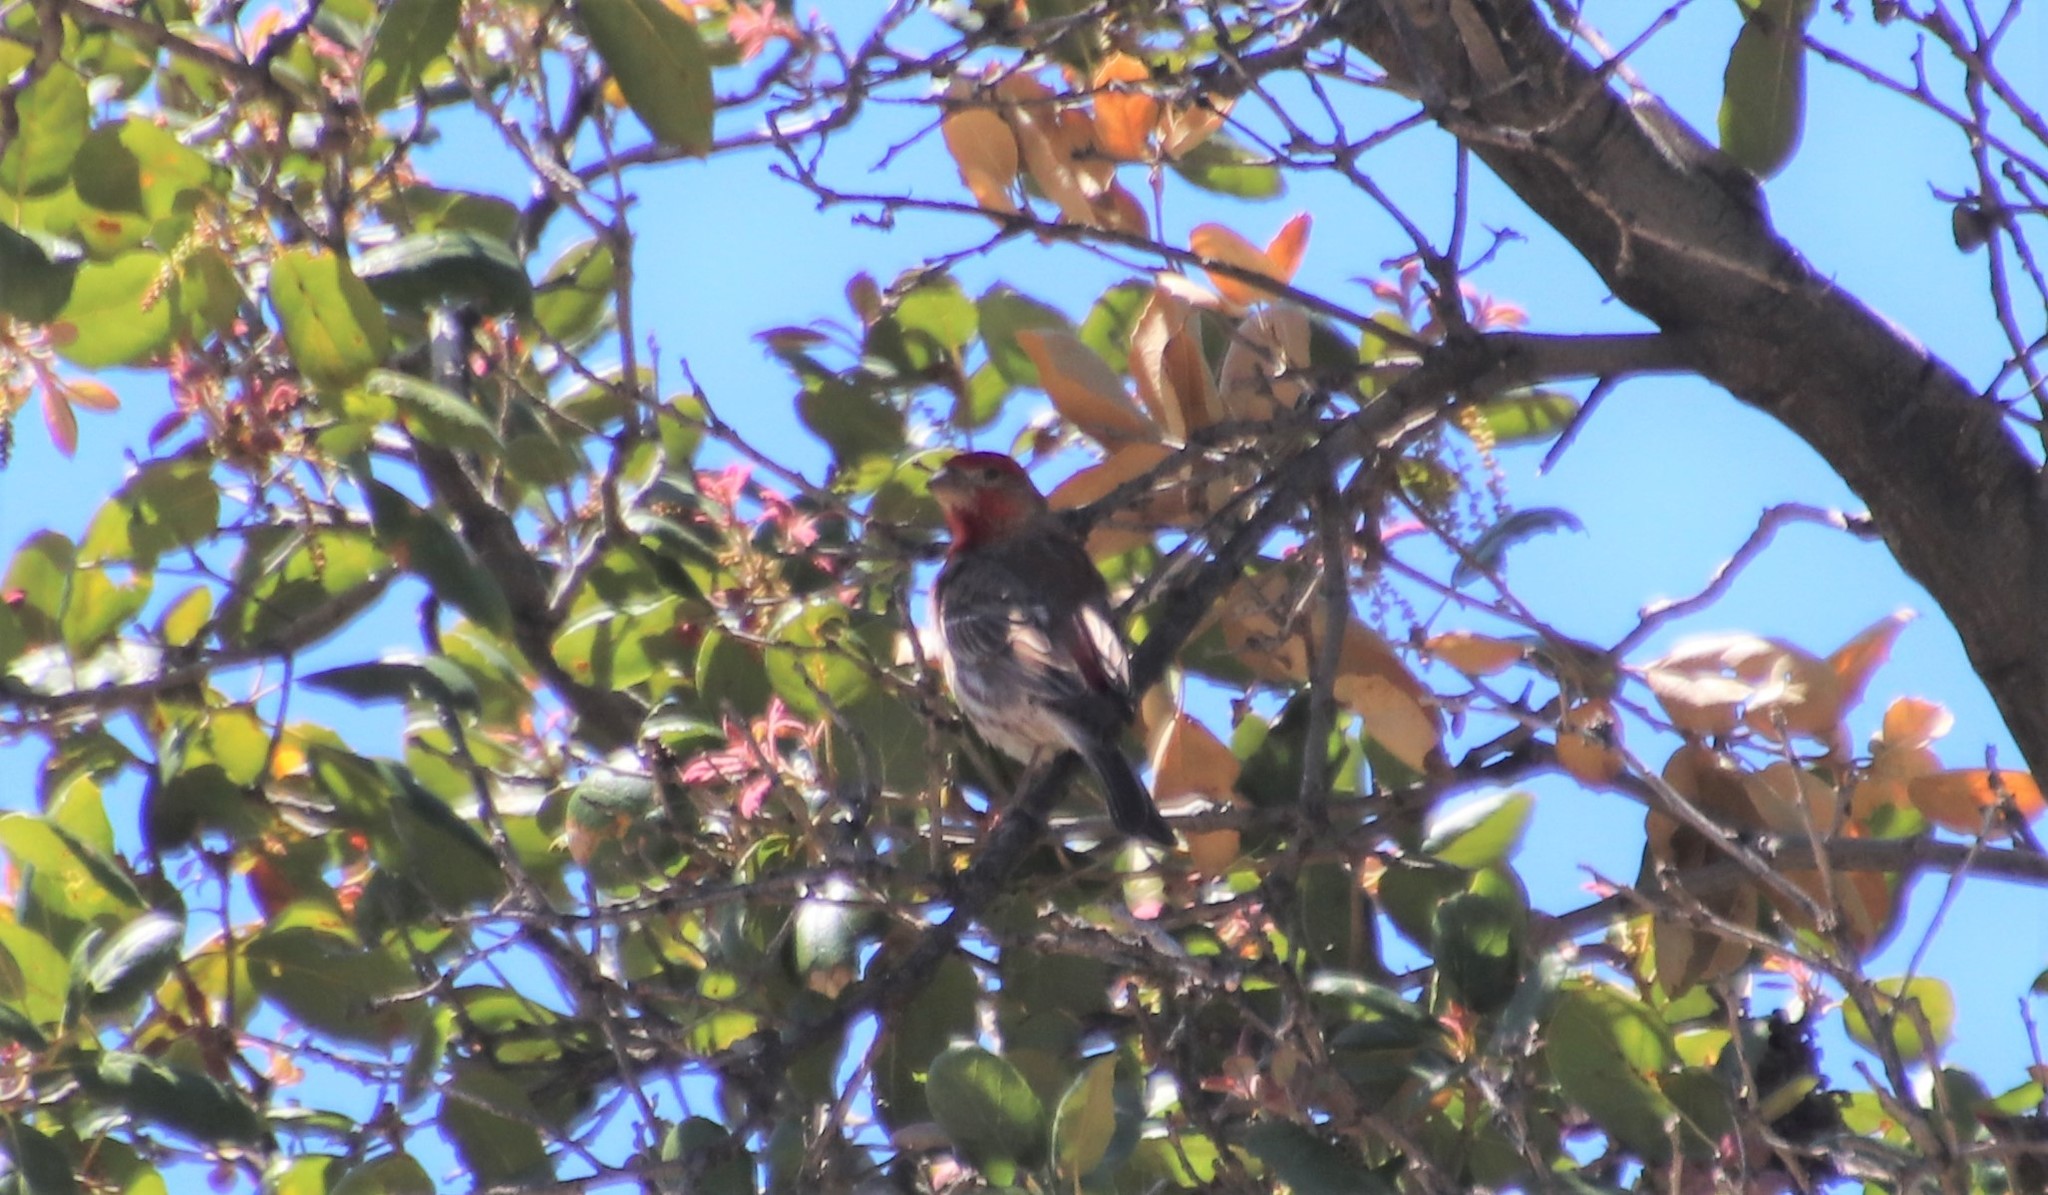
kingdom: Animalia
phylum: Chordata
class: Aves
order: Passeriformes
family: Fringillidae
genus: Haemorhous
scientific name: Haemorhous mexicanus
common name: House finch
